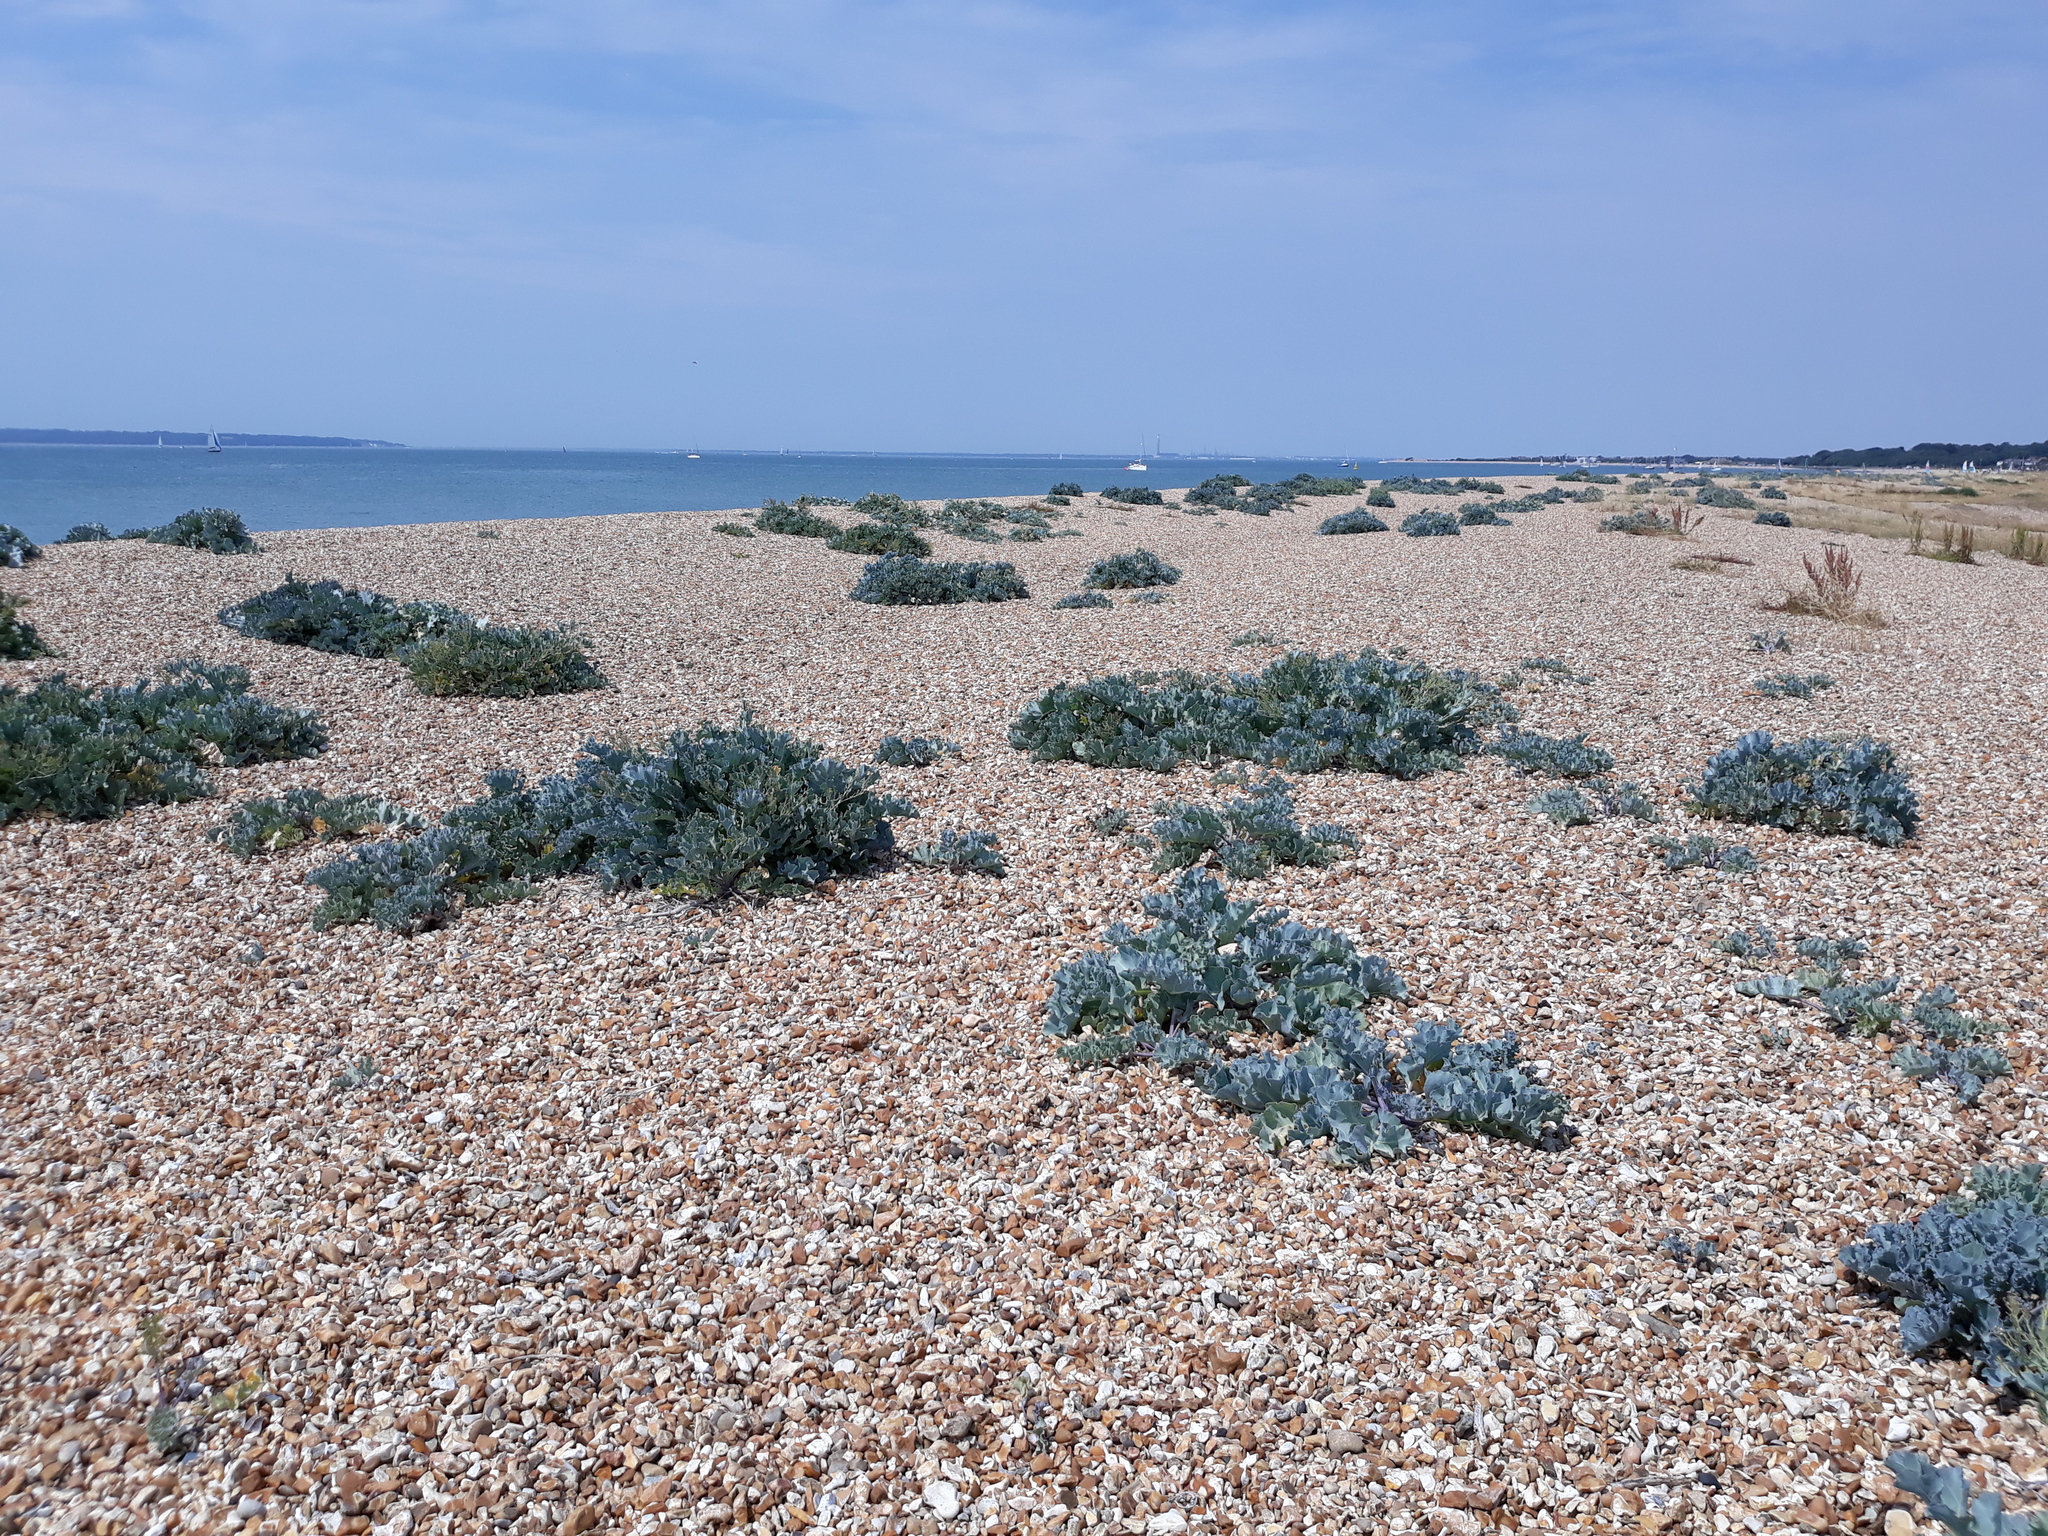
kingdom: Plantae
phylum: Tracheophyta
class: Magnoliopsida
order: Brassicales
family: Brassicaceae
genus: Crambe
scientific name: Crambe maritima
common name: Sea-kale
